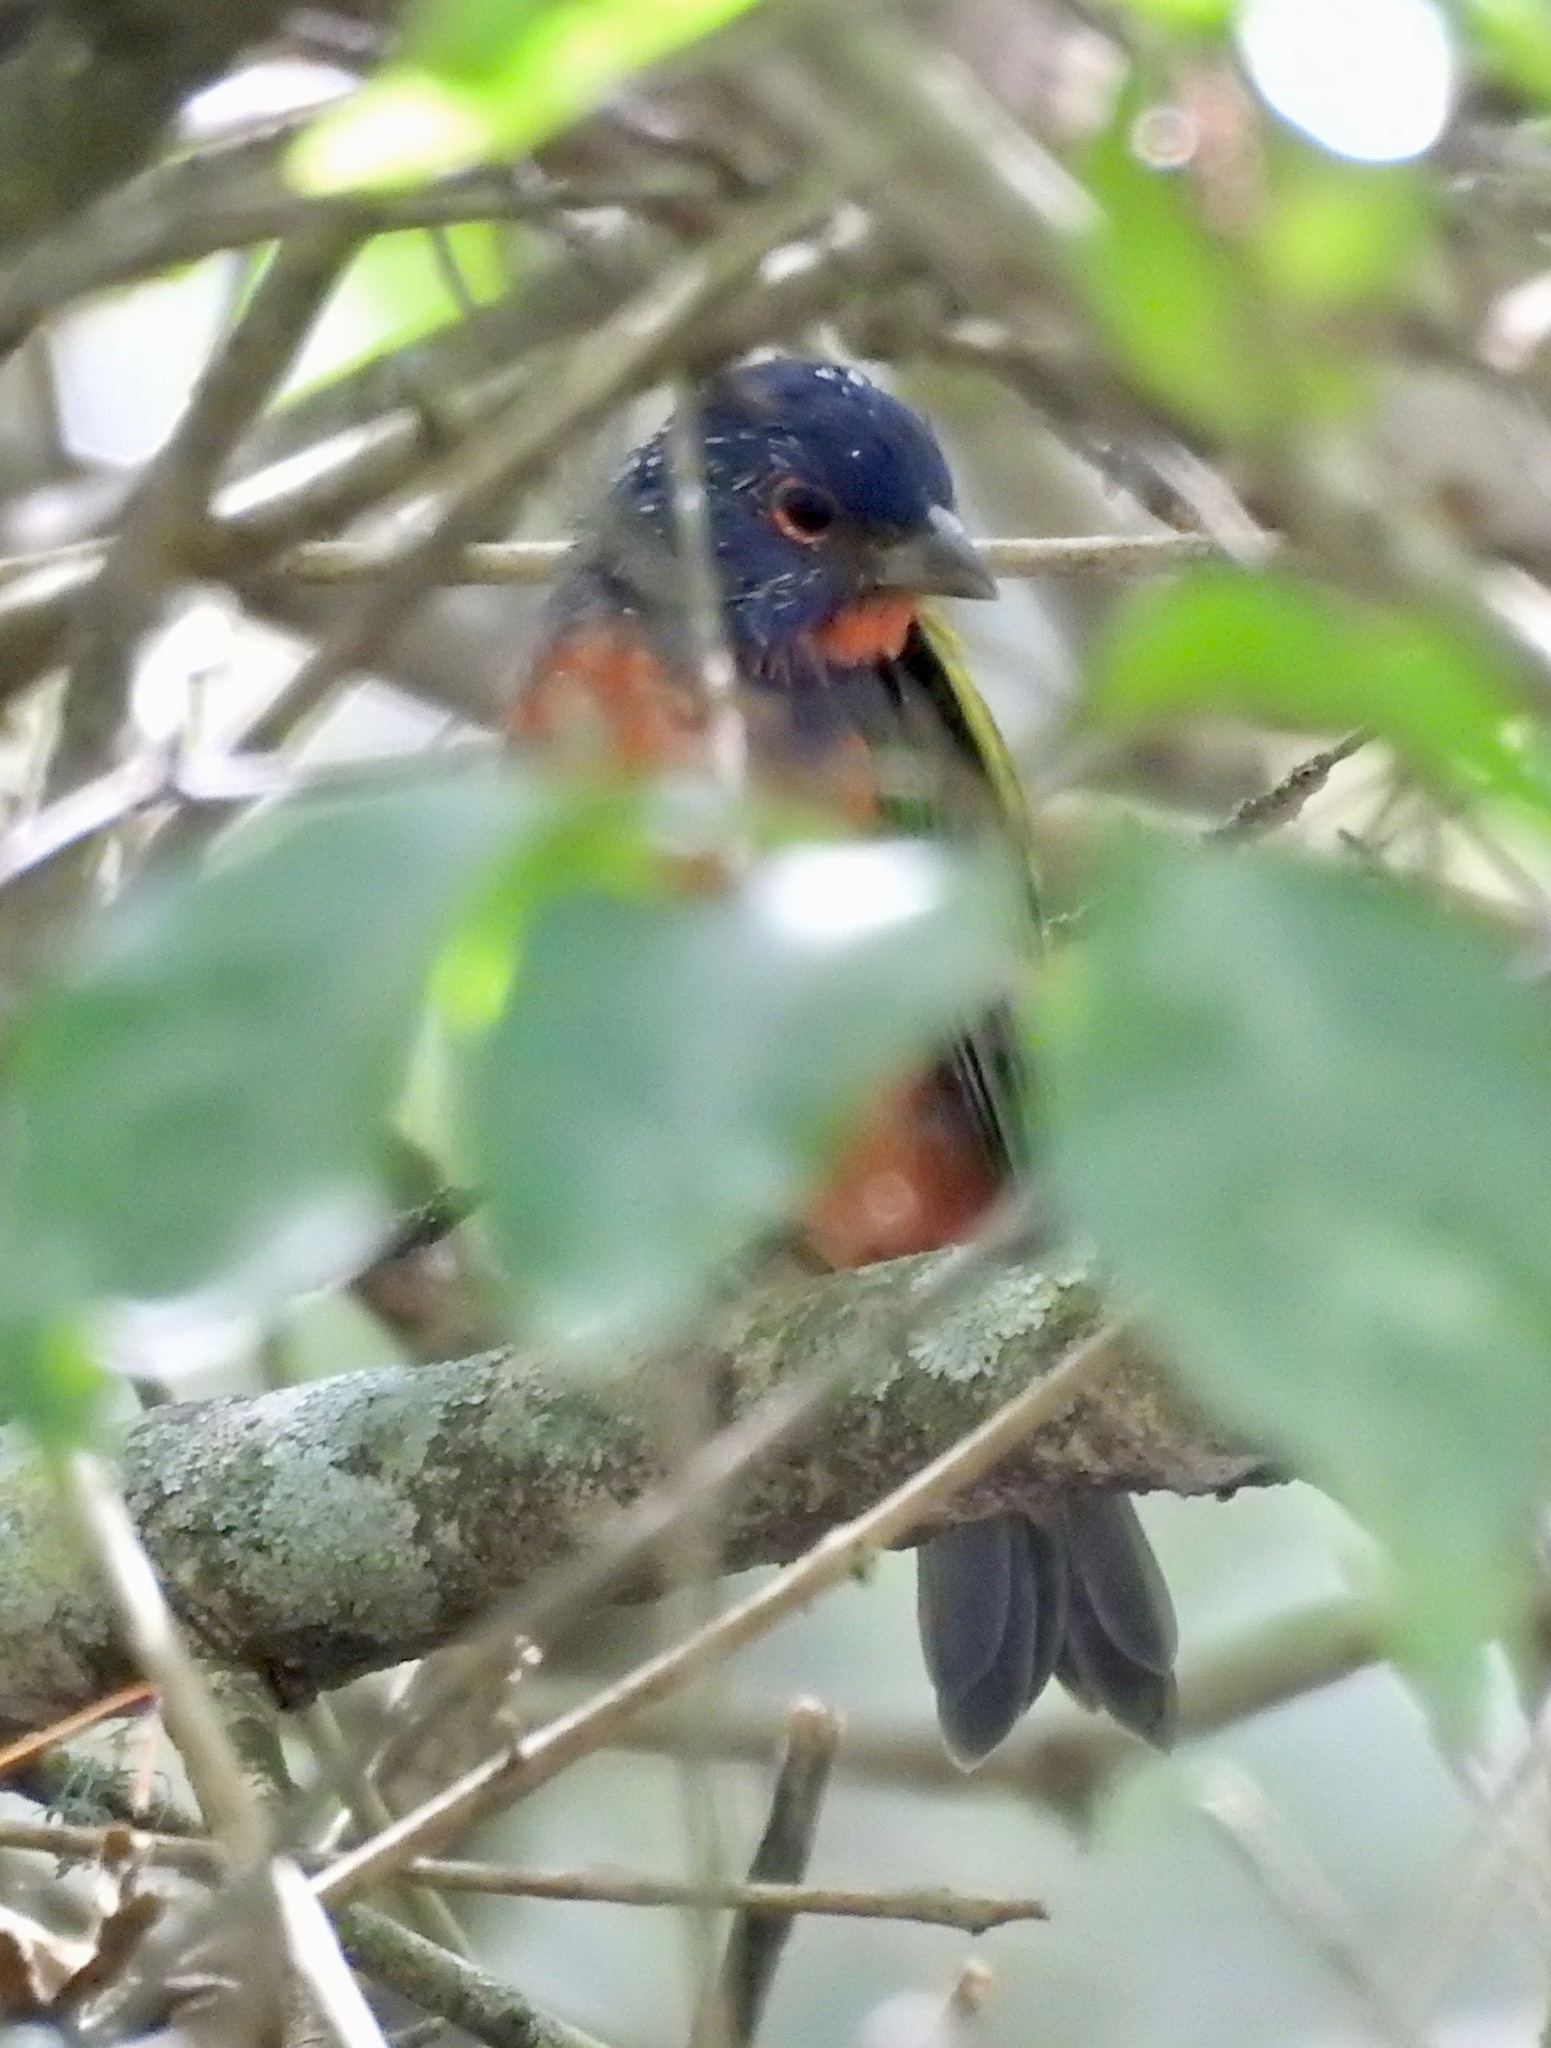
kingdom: Animalia
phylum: Chordata
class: Aves
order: Passeriformes
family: Cardinalidae
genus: Passerina
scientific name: Passerina ciris
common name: Painted bunting
